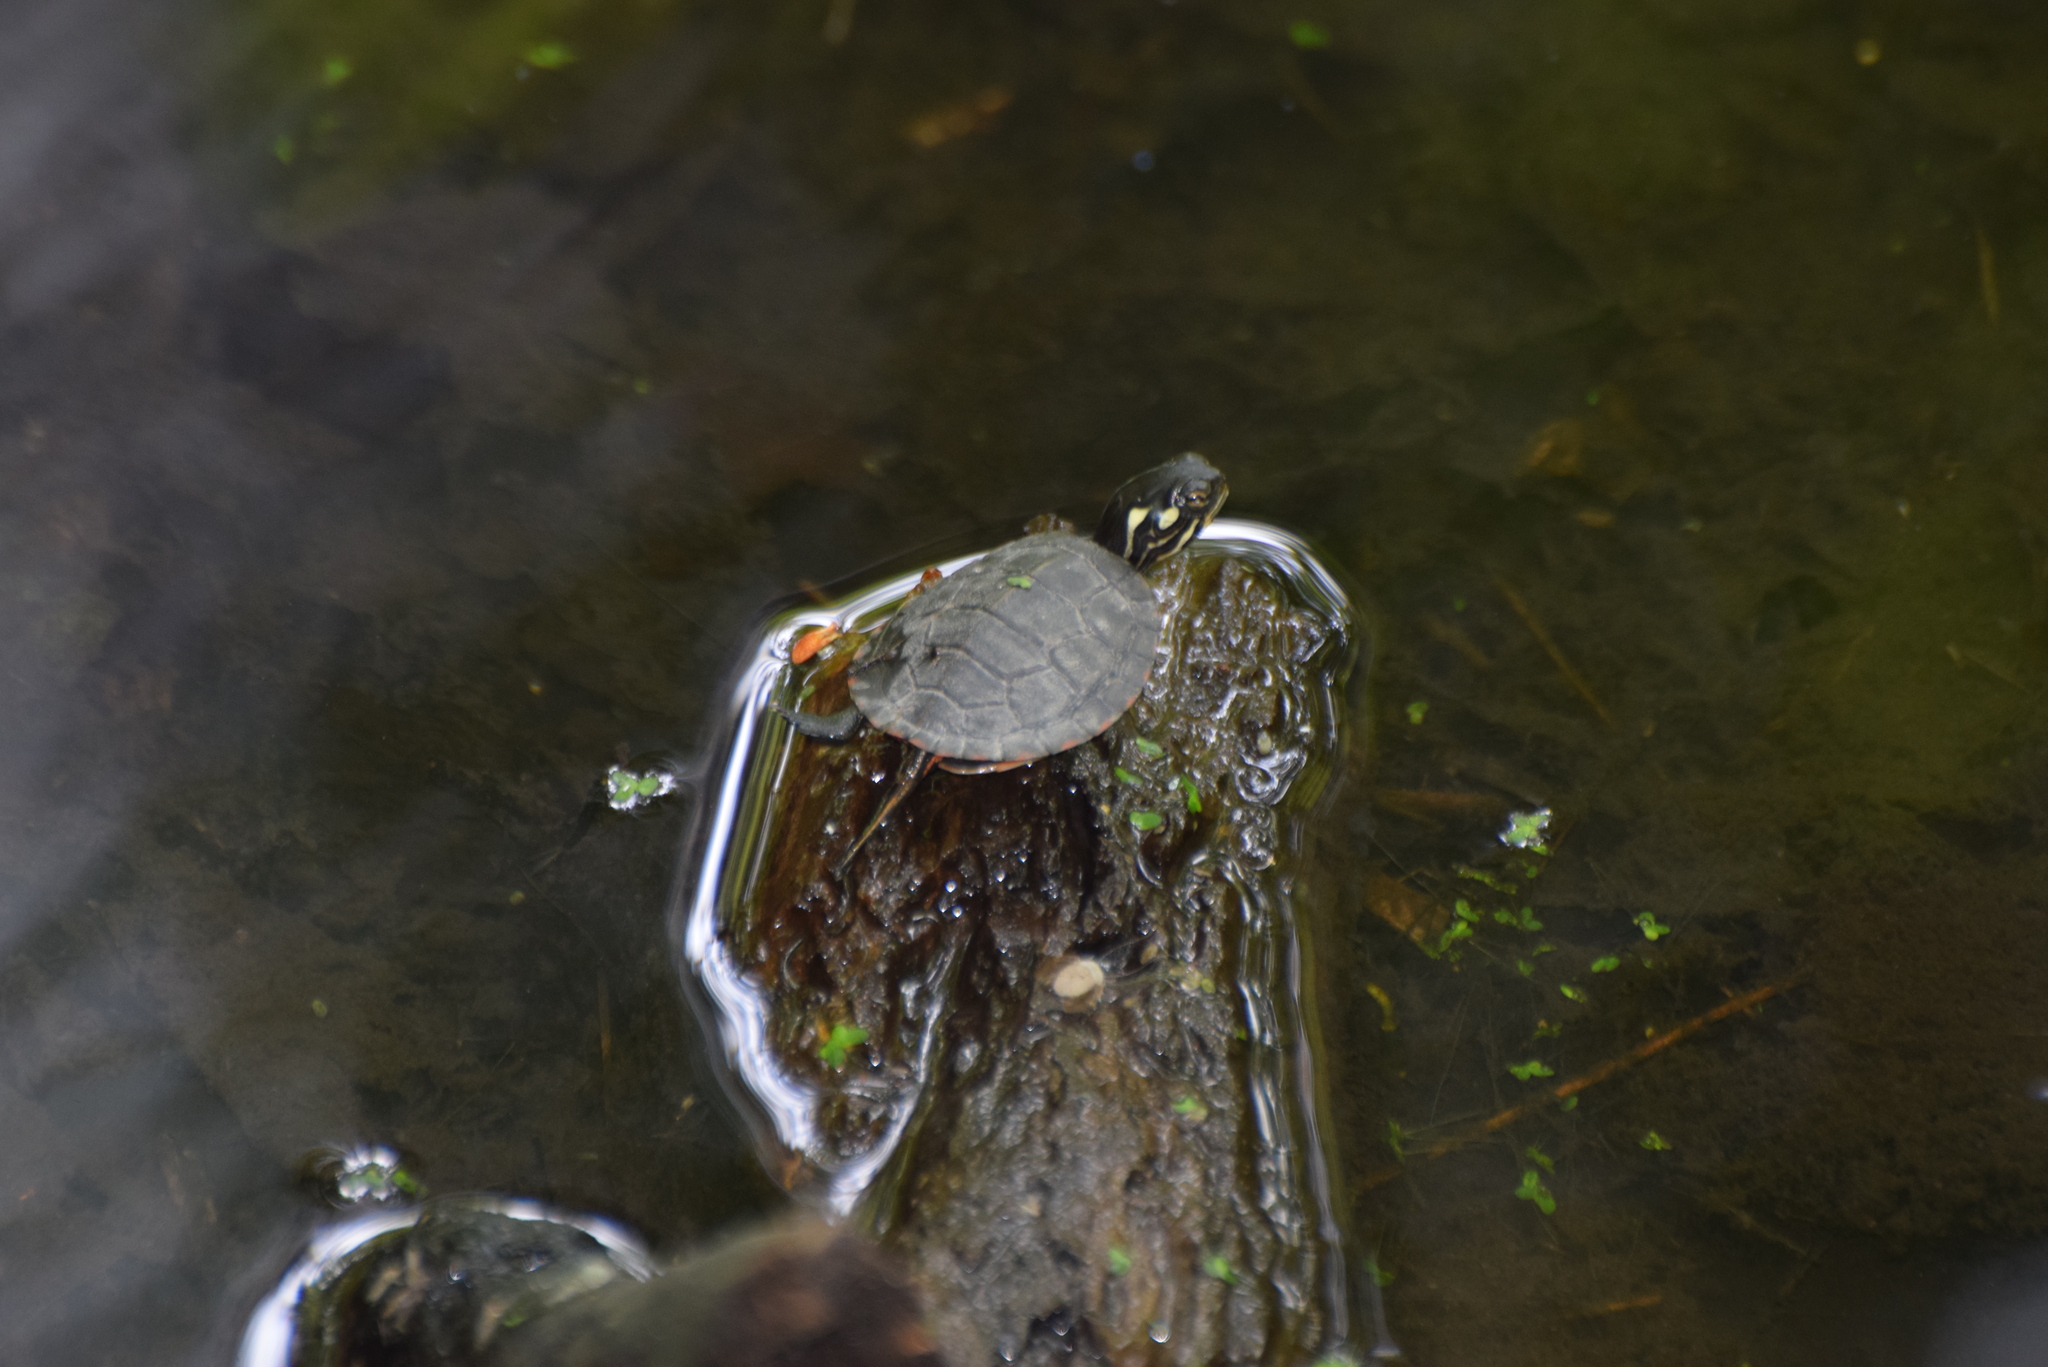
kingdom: Animalia
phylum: Chordata
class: Testudines
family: Emydidae
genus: Chrysemys
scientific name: Chrysemys picta
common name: Painted turtle
